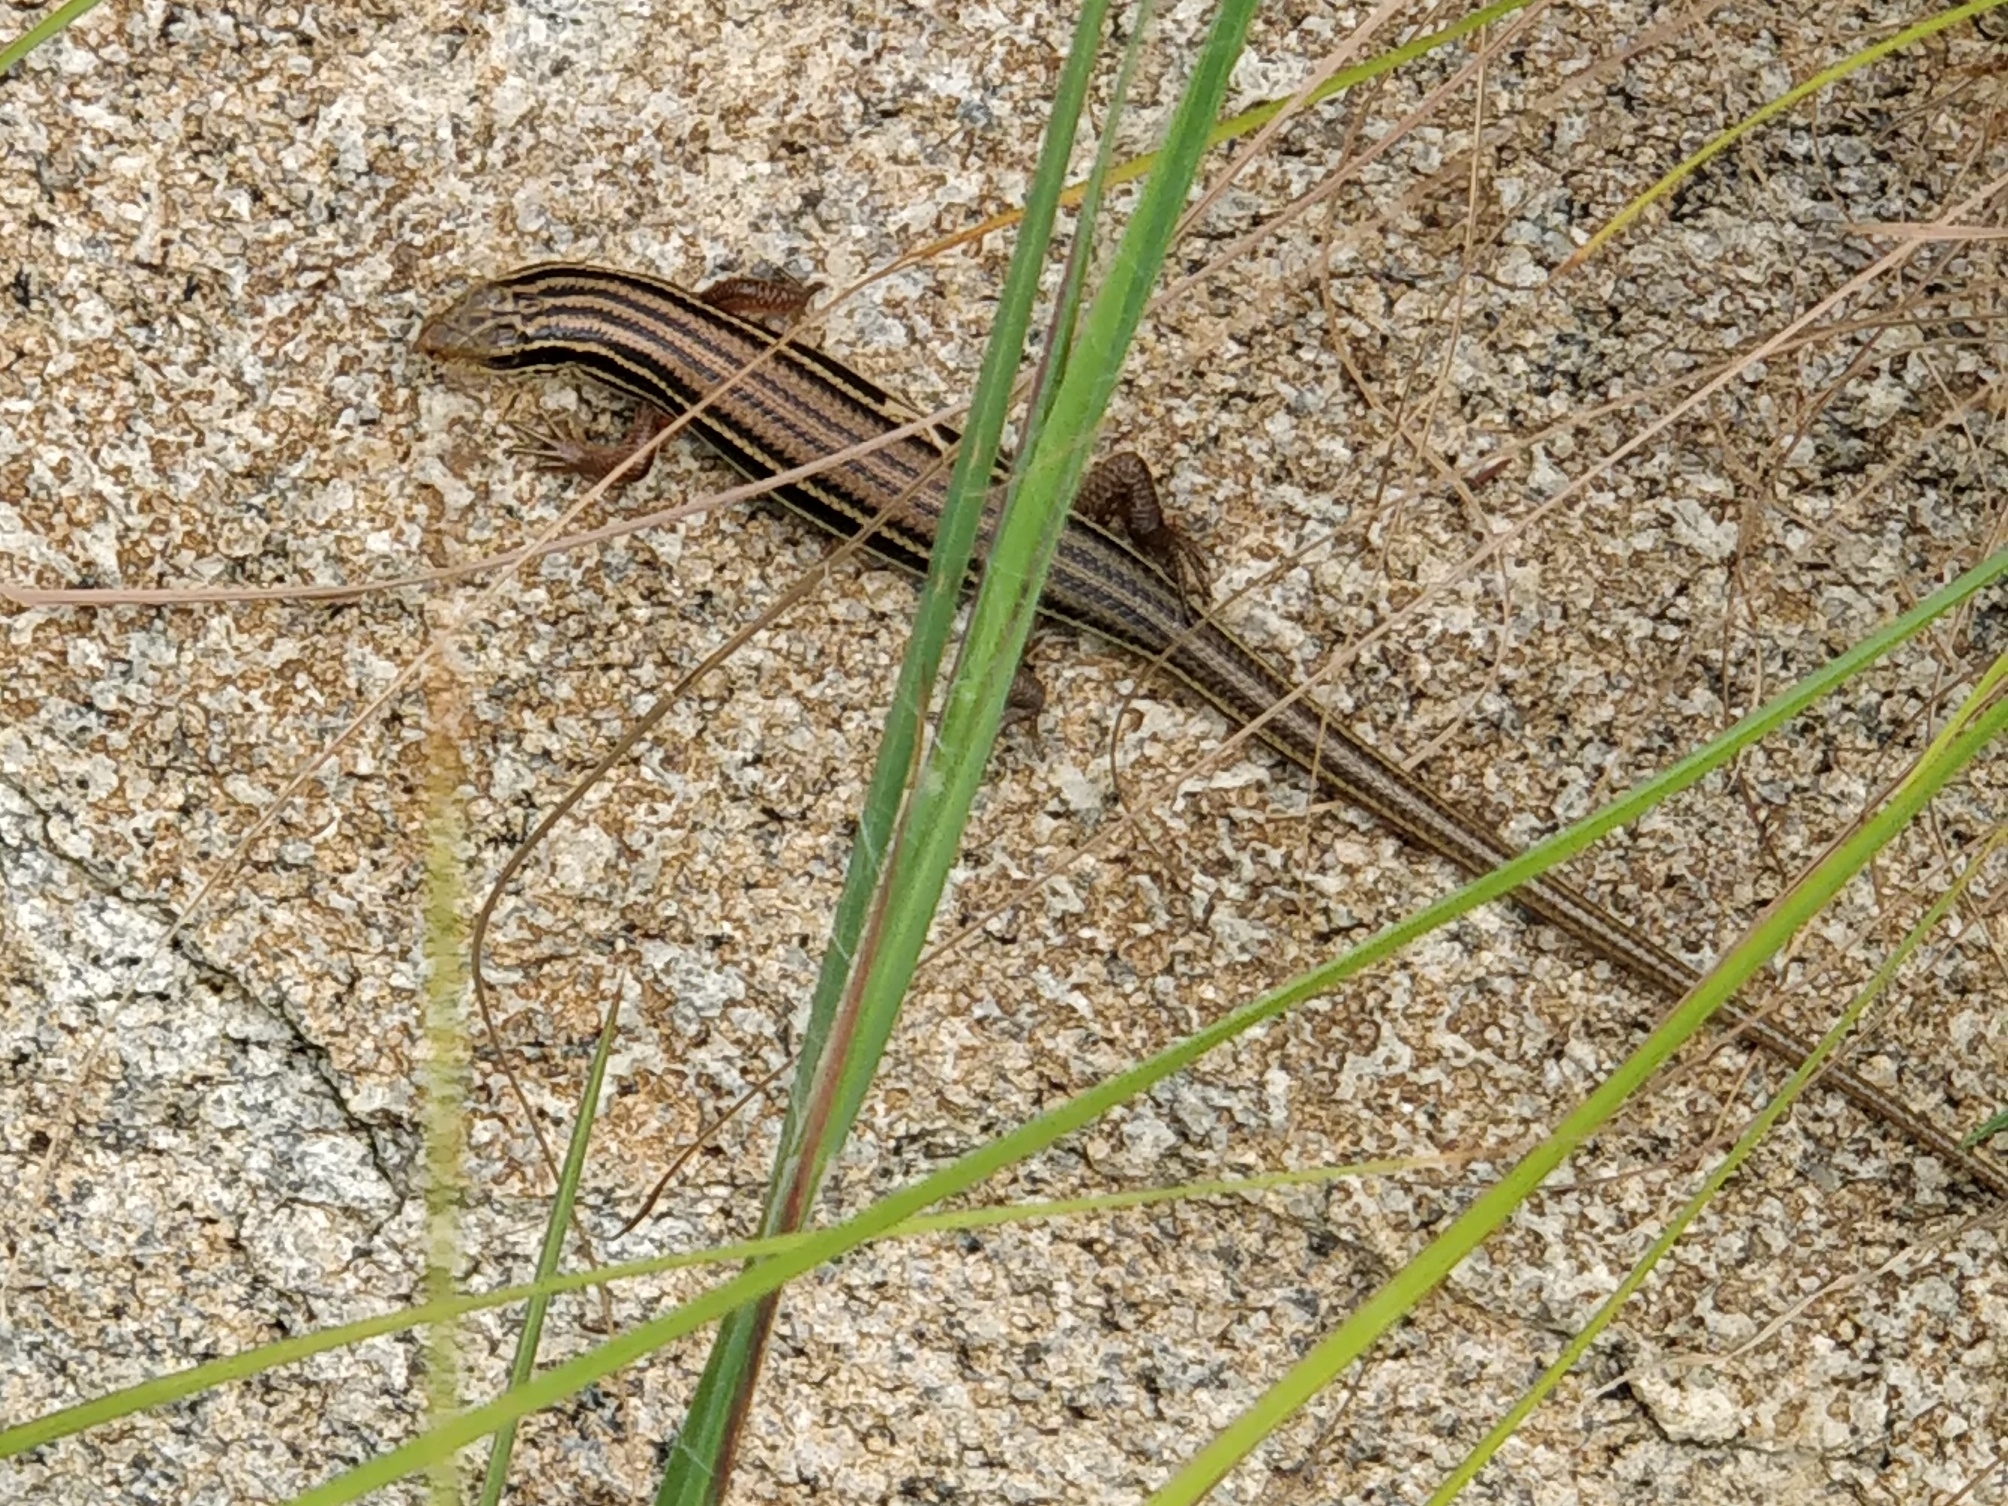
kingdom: Animalia
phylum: Chordata
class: Squamata
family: Scincidae
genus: Eutropis
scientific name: Eutropis beddomei
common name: Beddome's mabuya
